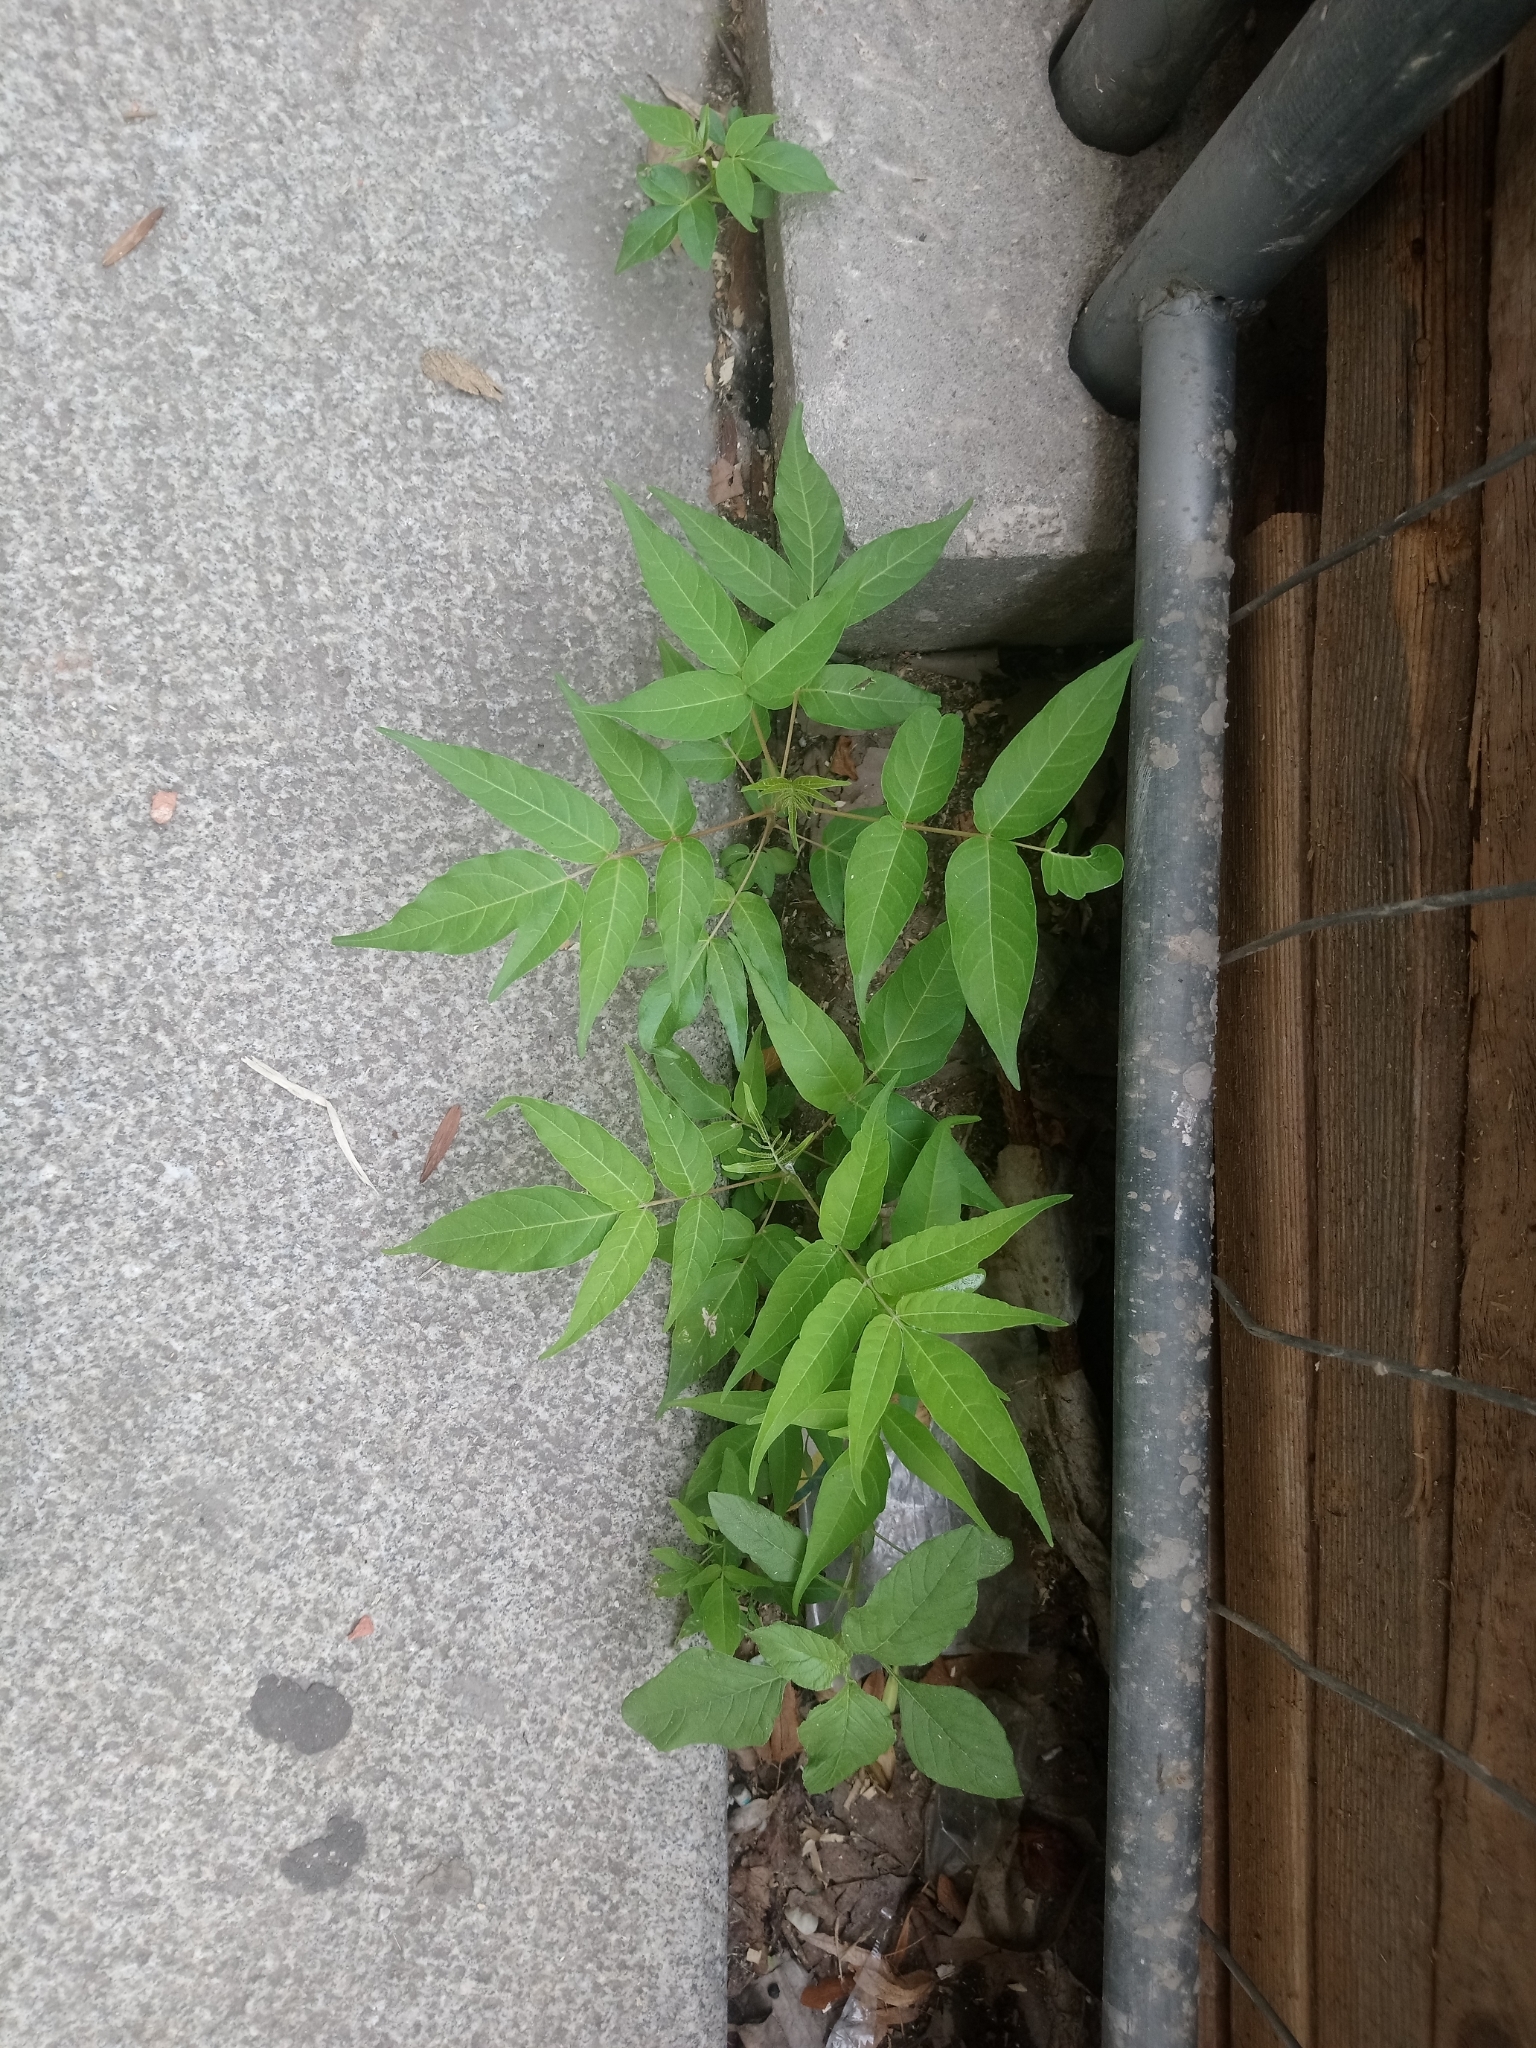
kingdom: Plantae
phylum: Tracheophyta
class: Magnoliopsida
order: Sapindales
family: Simaroubaceae
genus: Ailanthus
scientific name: Ailanthus altissima
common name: Tree-of-heaven
